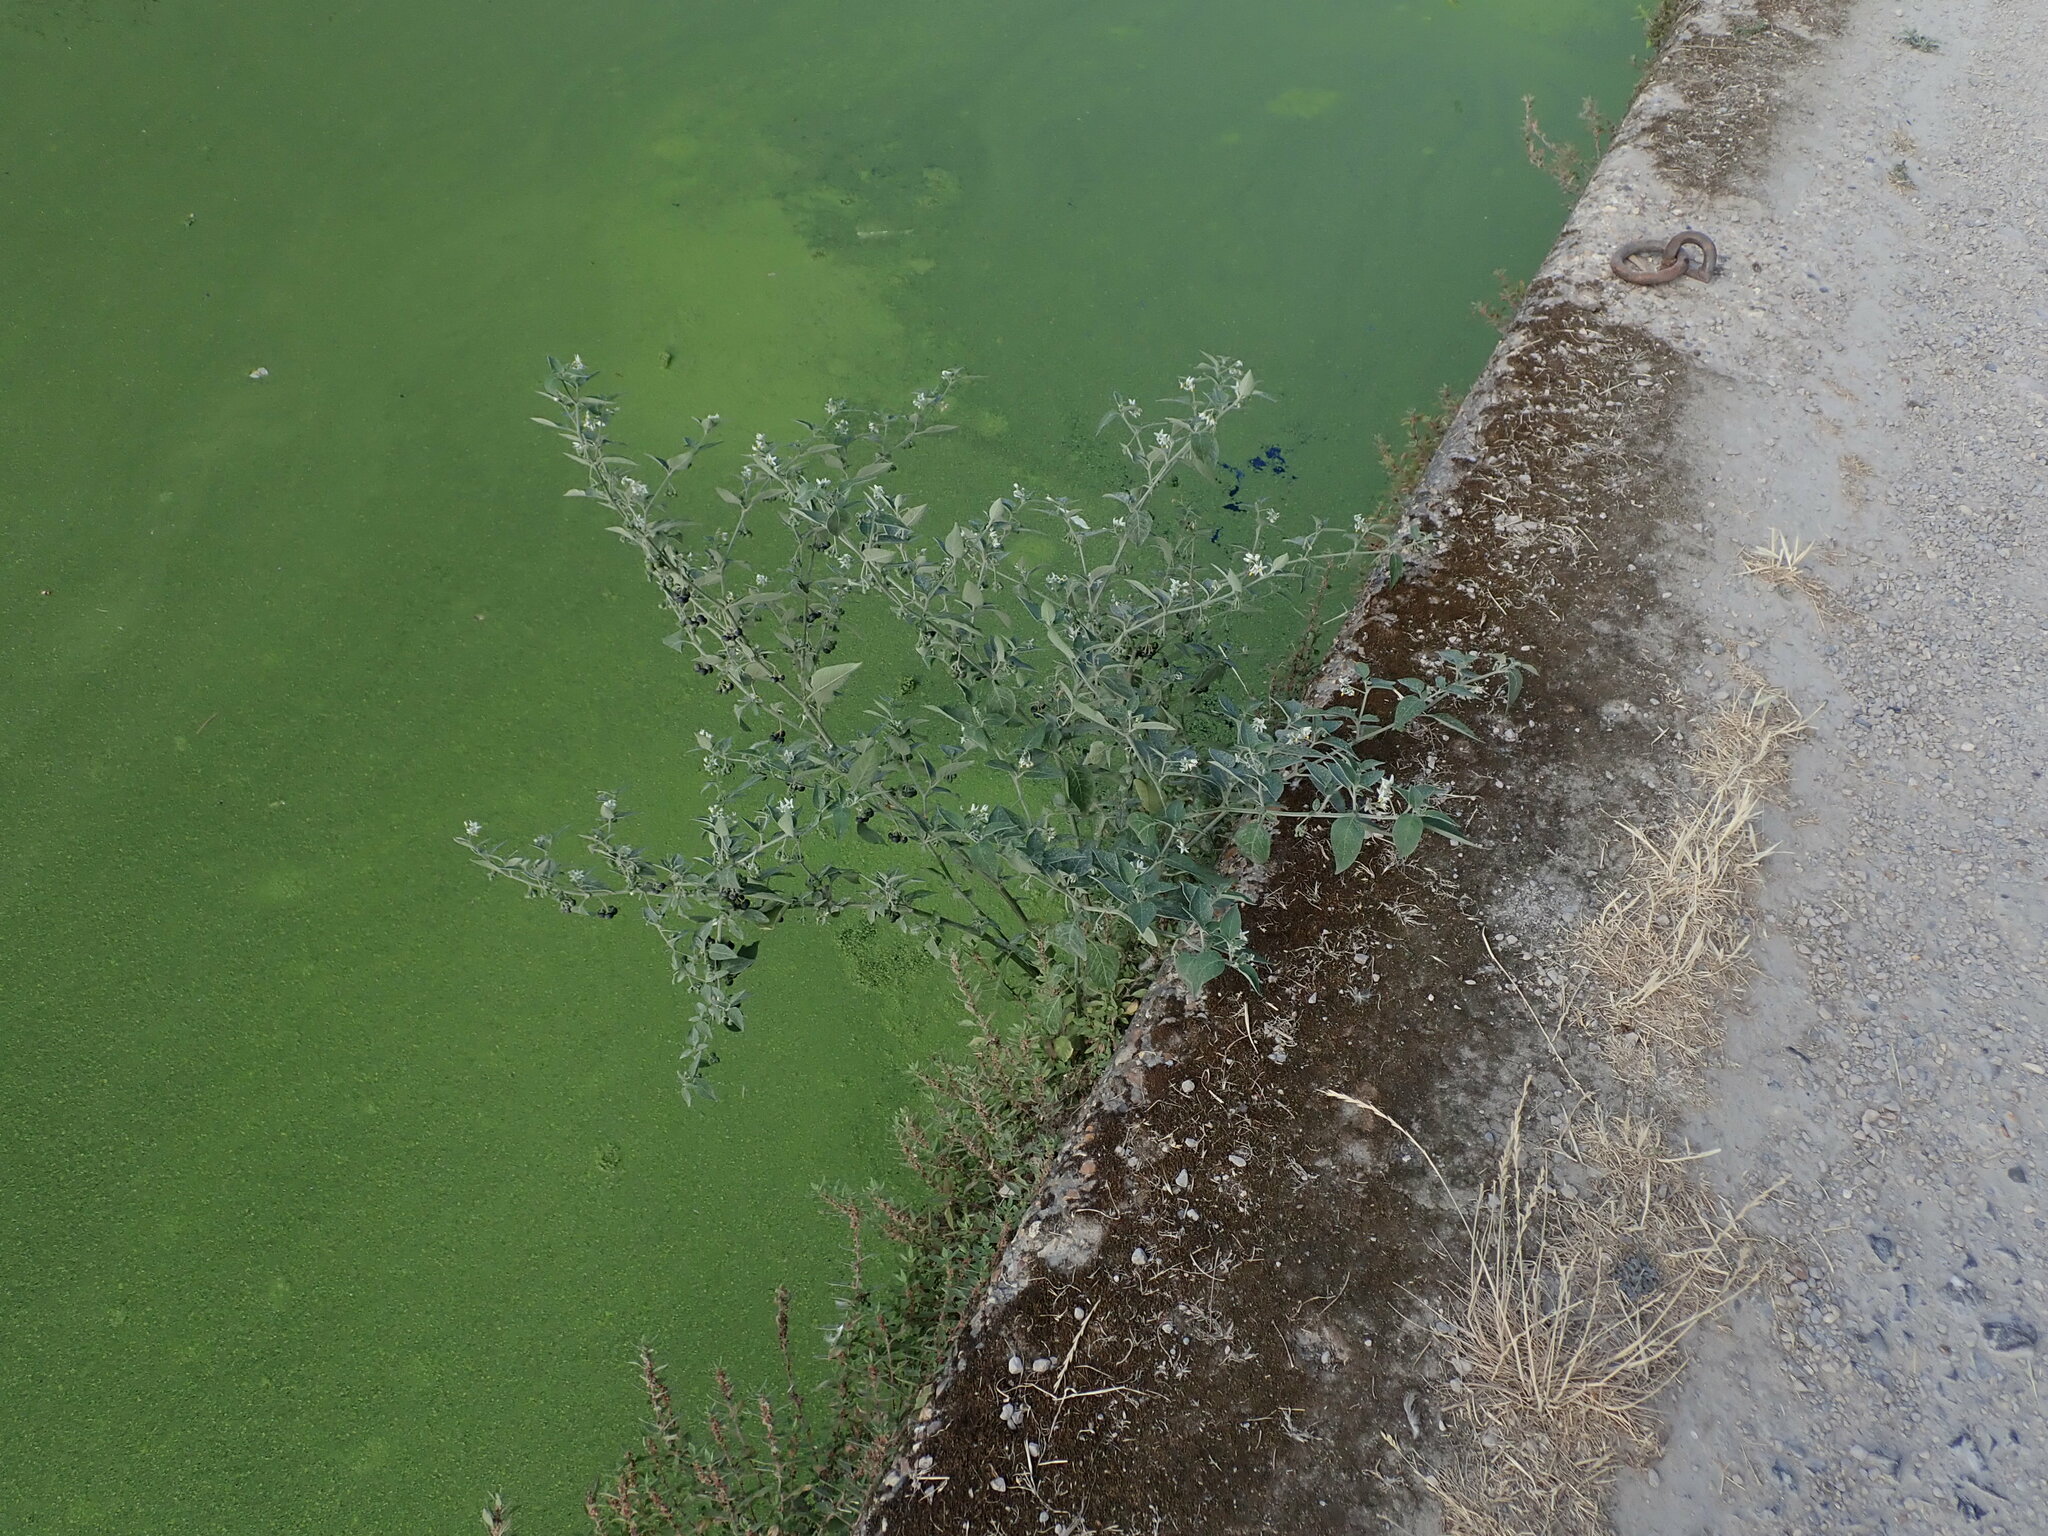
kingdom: Plantae
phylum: Tracheophyta
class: Magnoliopsida
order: Solanales
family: Solanaceae
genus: Solanum
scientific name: Solanum chenopodioides
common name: Tall nightshade
